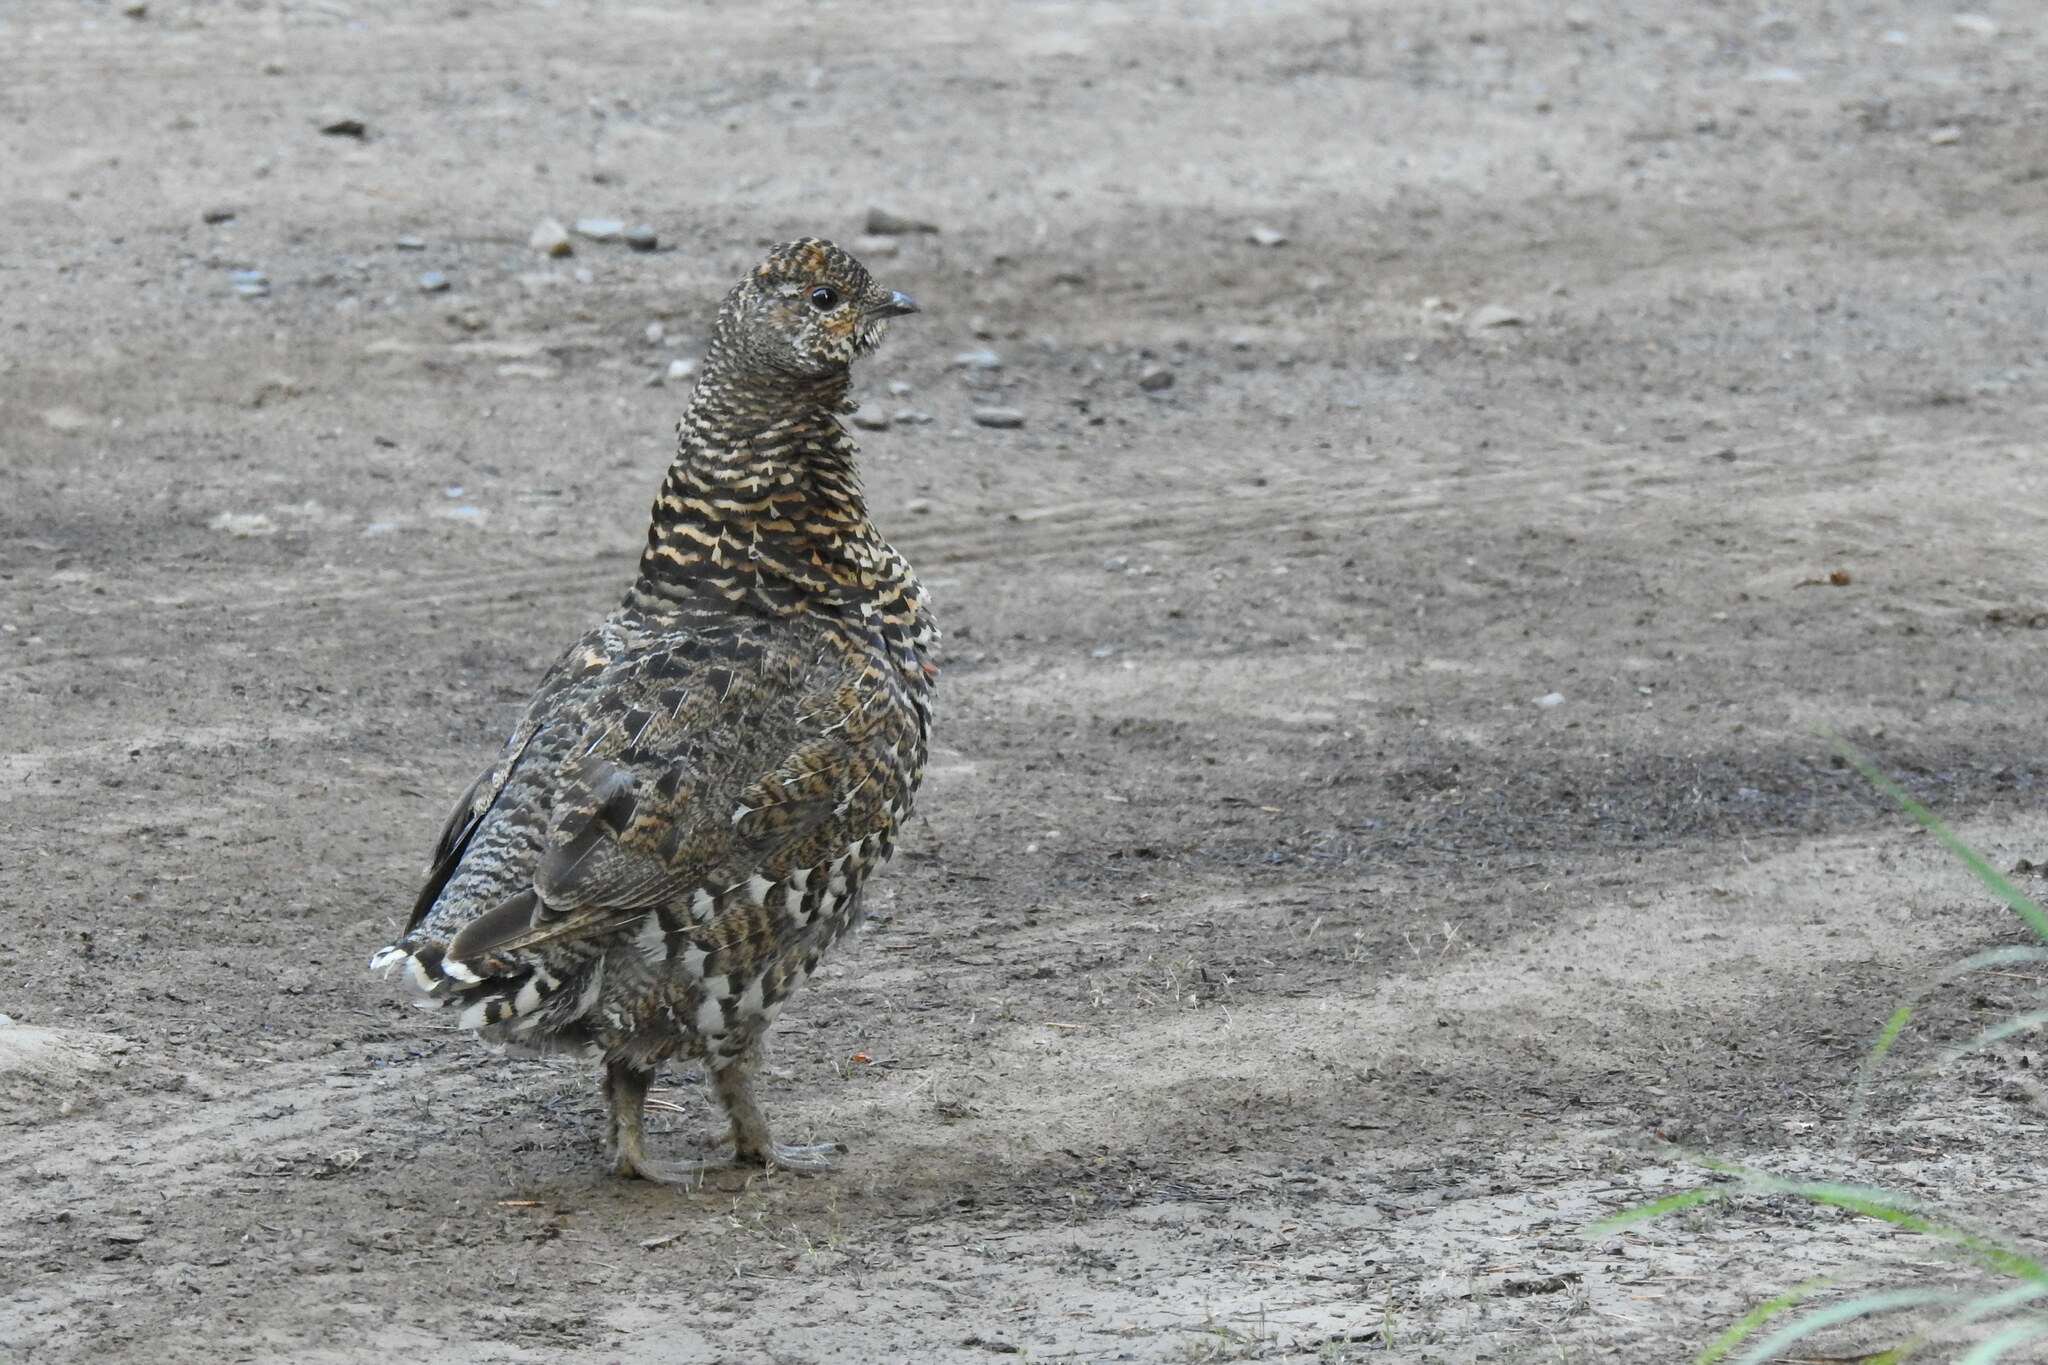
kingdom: Animalia
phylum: Chordata
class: Aves
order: Galliformes
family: Phasianidae
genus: Canachites
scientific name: Canachites canadensis
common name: Spruce grouse
